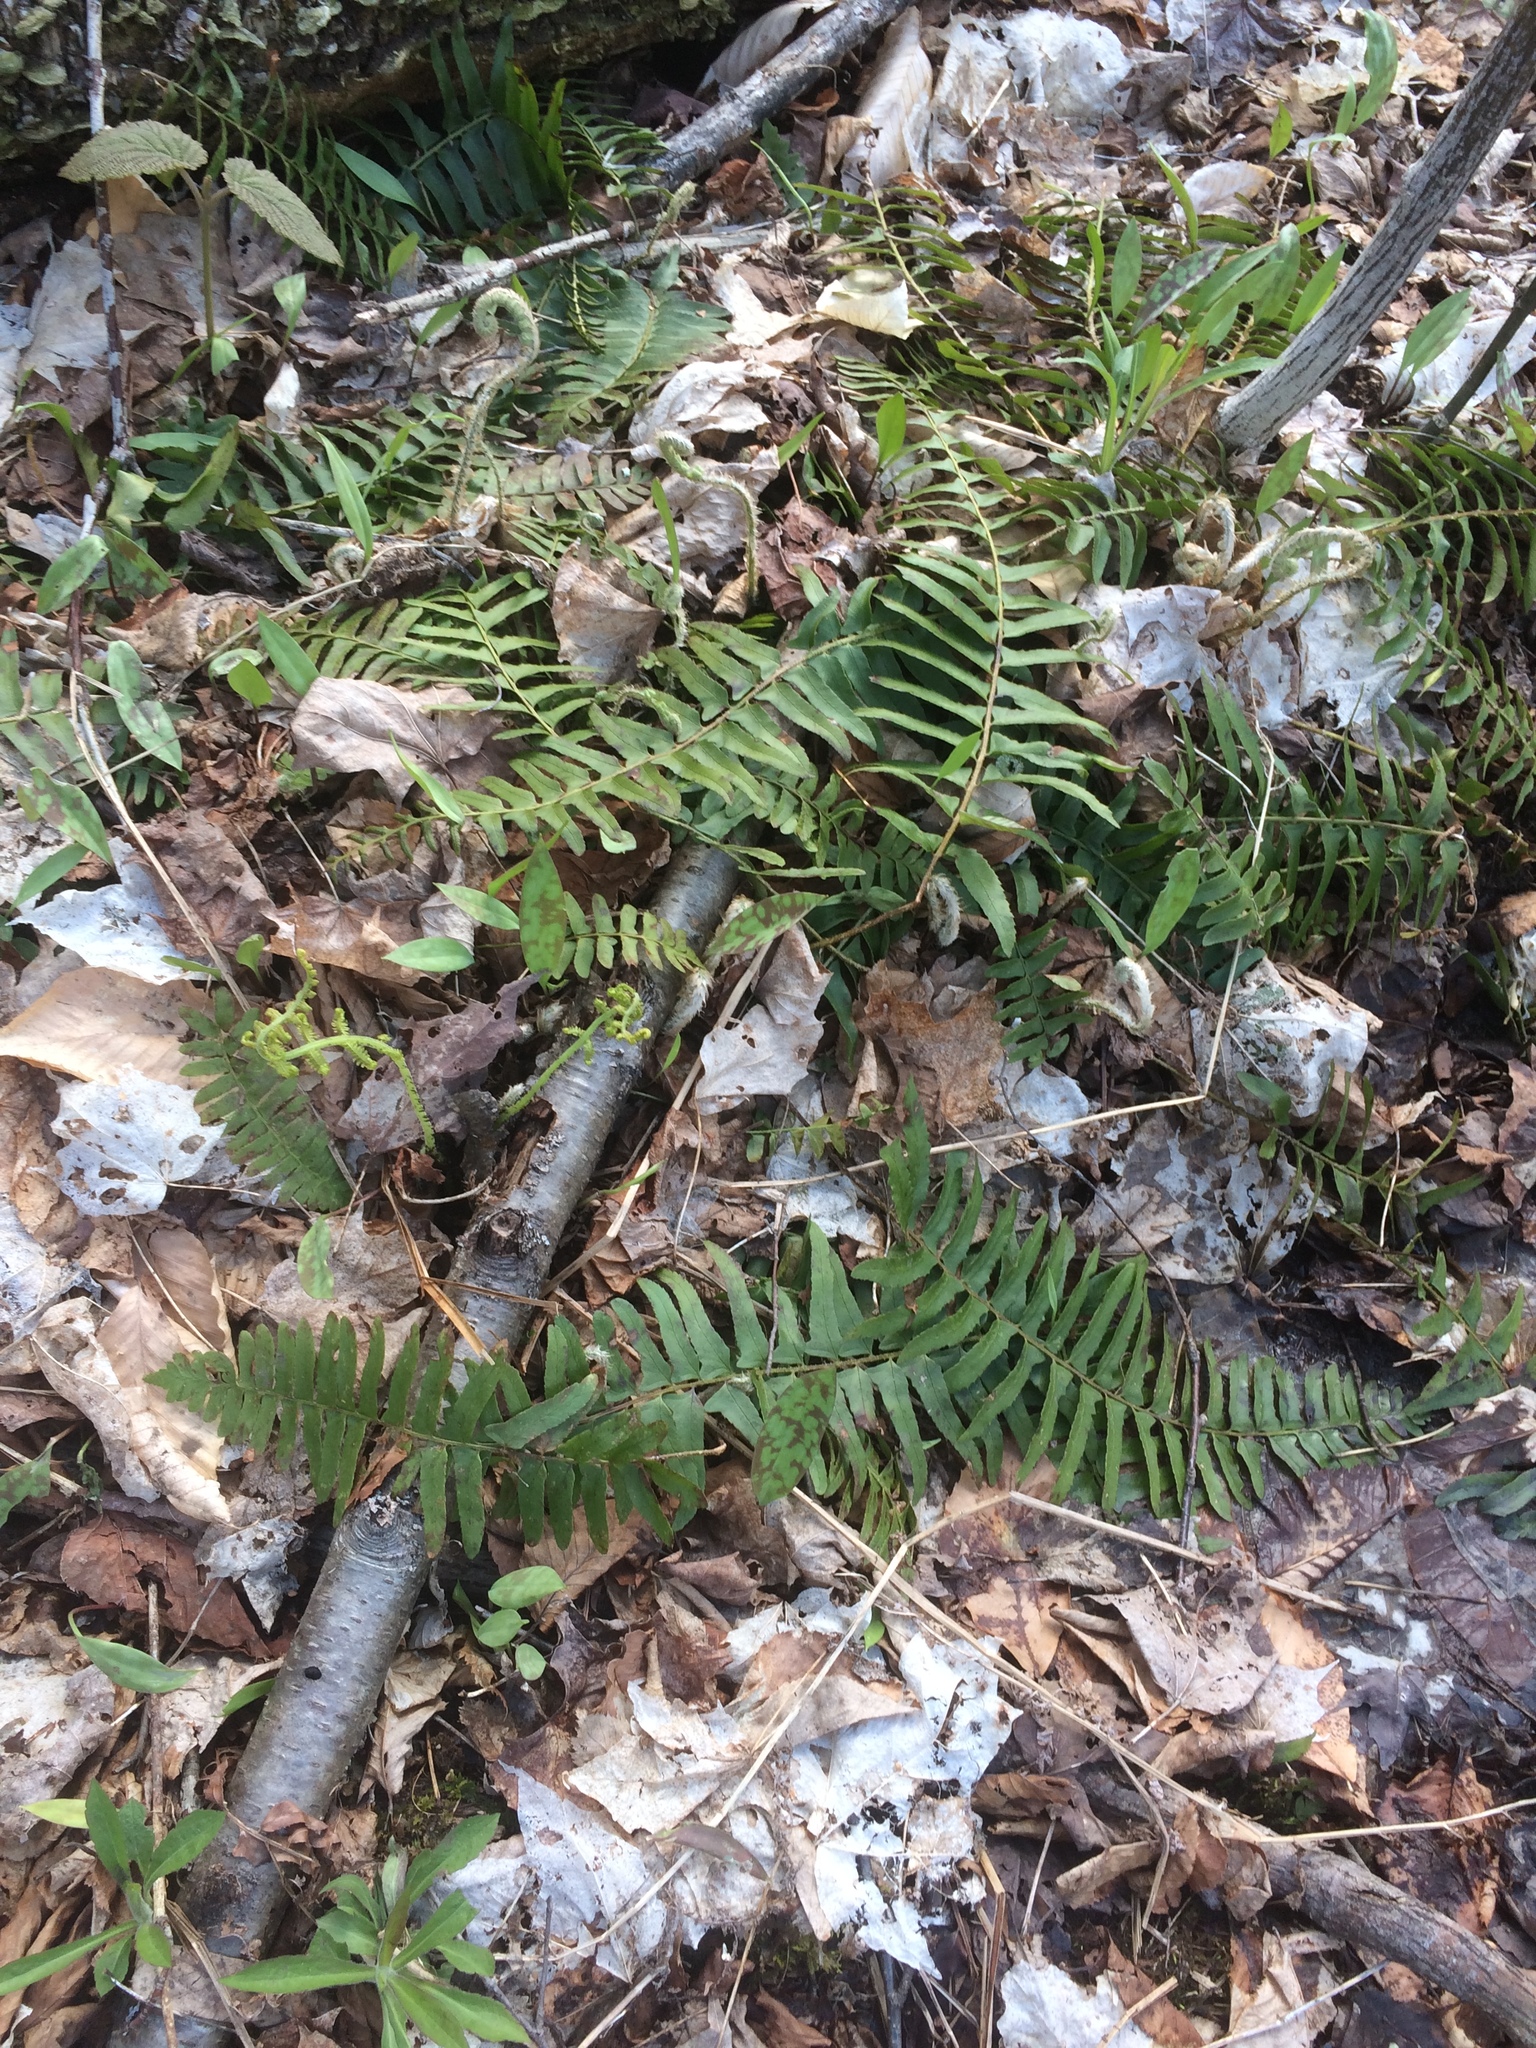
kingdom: Plantae
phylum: Tracheophyta
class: Polypodiopsida
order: Polypodiales
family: Dryopteridaceae
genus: Polystichum
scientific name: Polystichum acrostichoides
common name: Christmas fern
